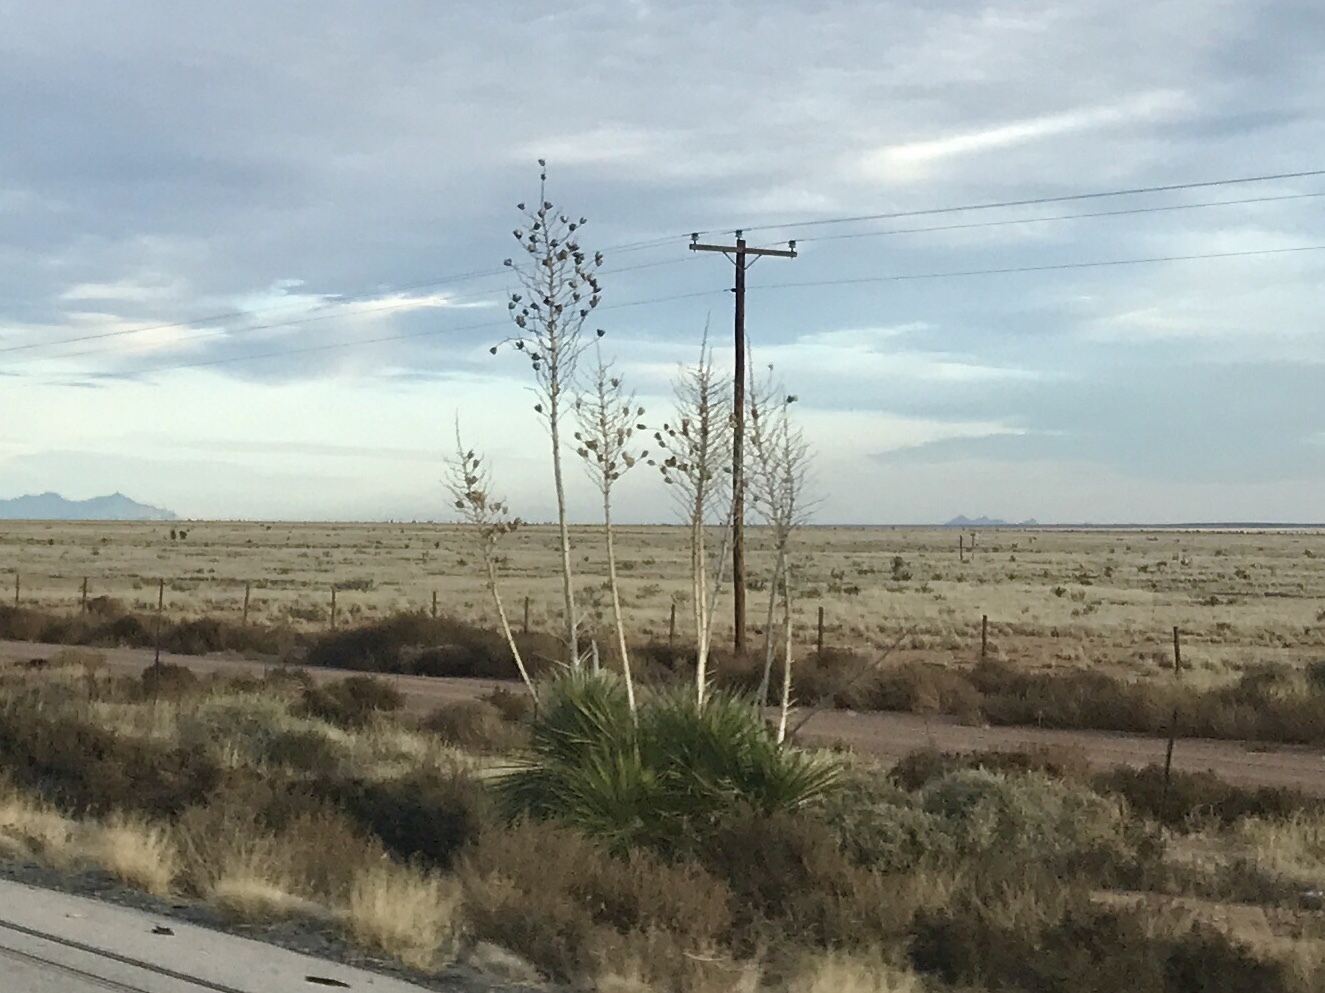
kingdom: Plantae
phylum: Tracheophyta
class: Liliopsida
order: Asparagales
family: Asparagaceae
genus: Yucca
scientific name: Yucca elata
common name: Palmella
